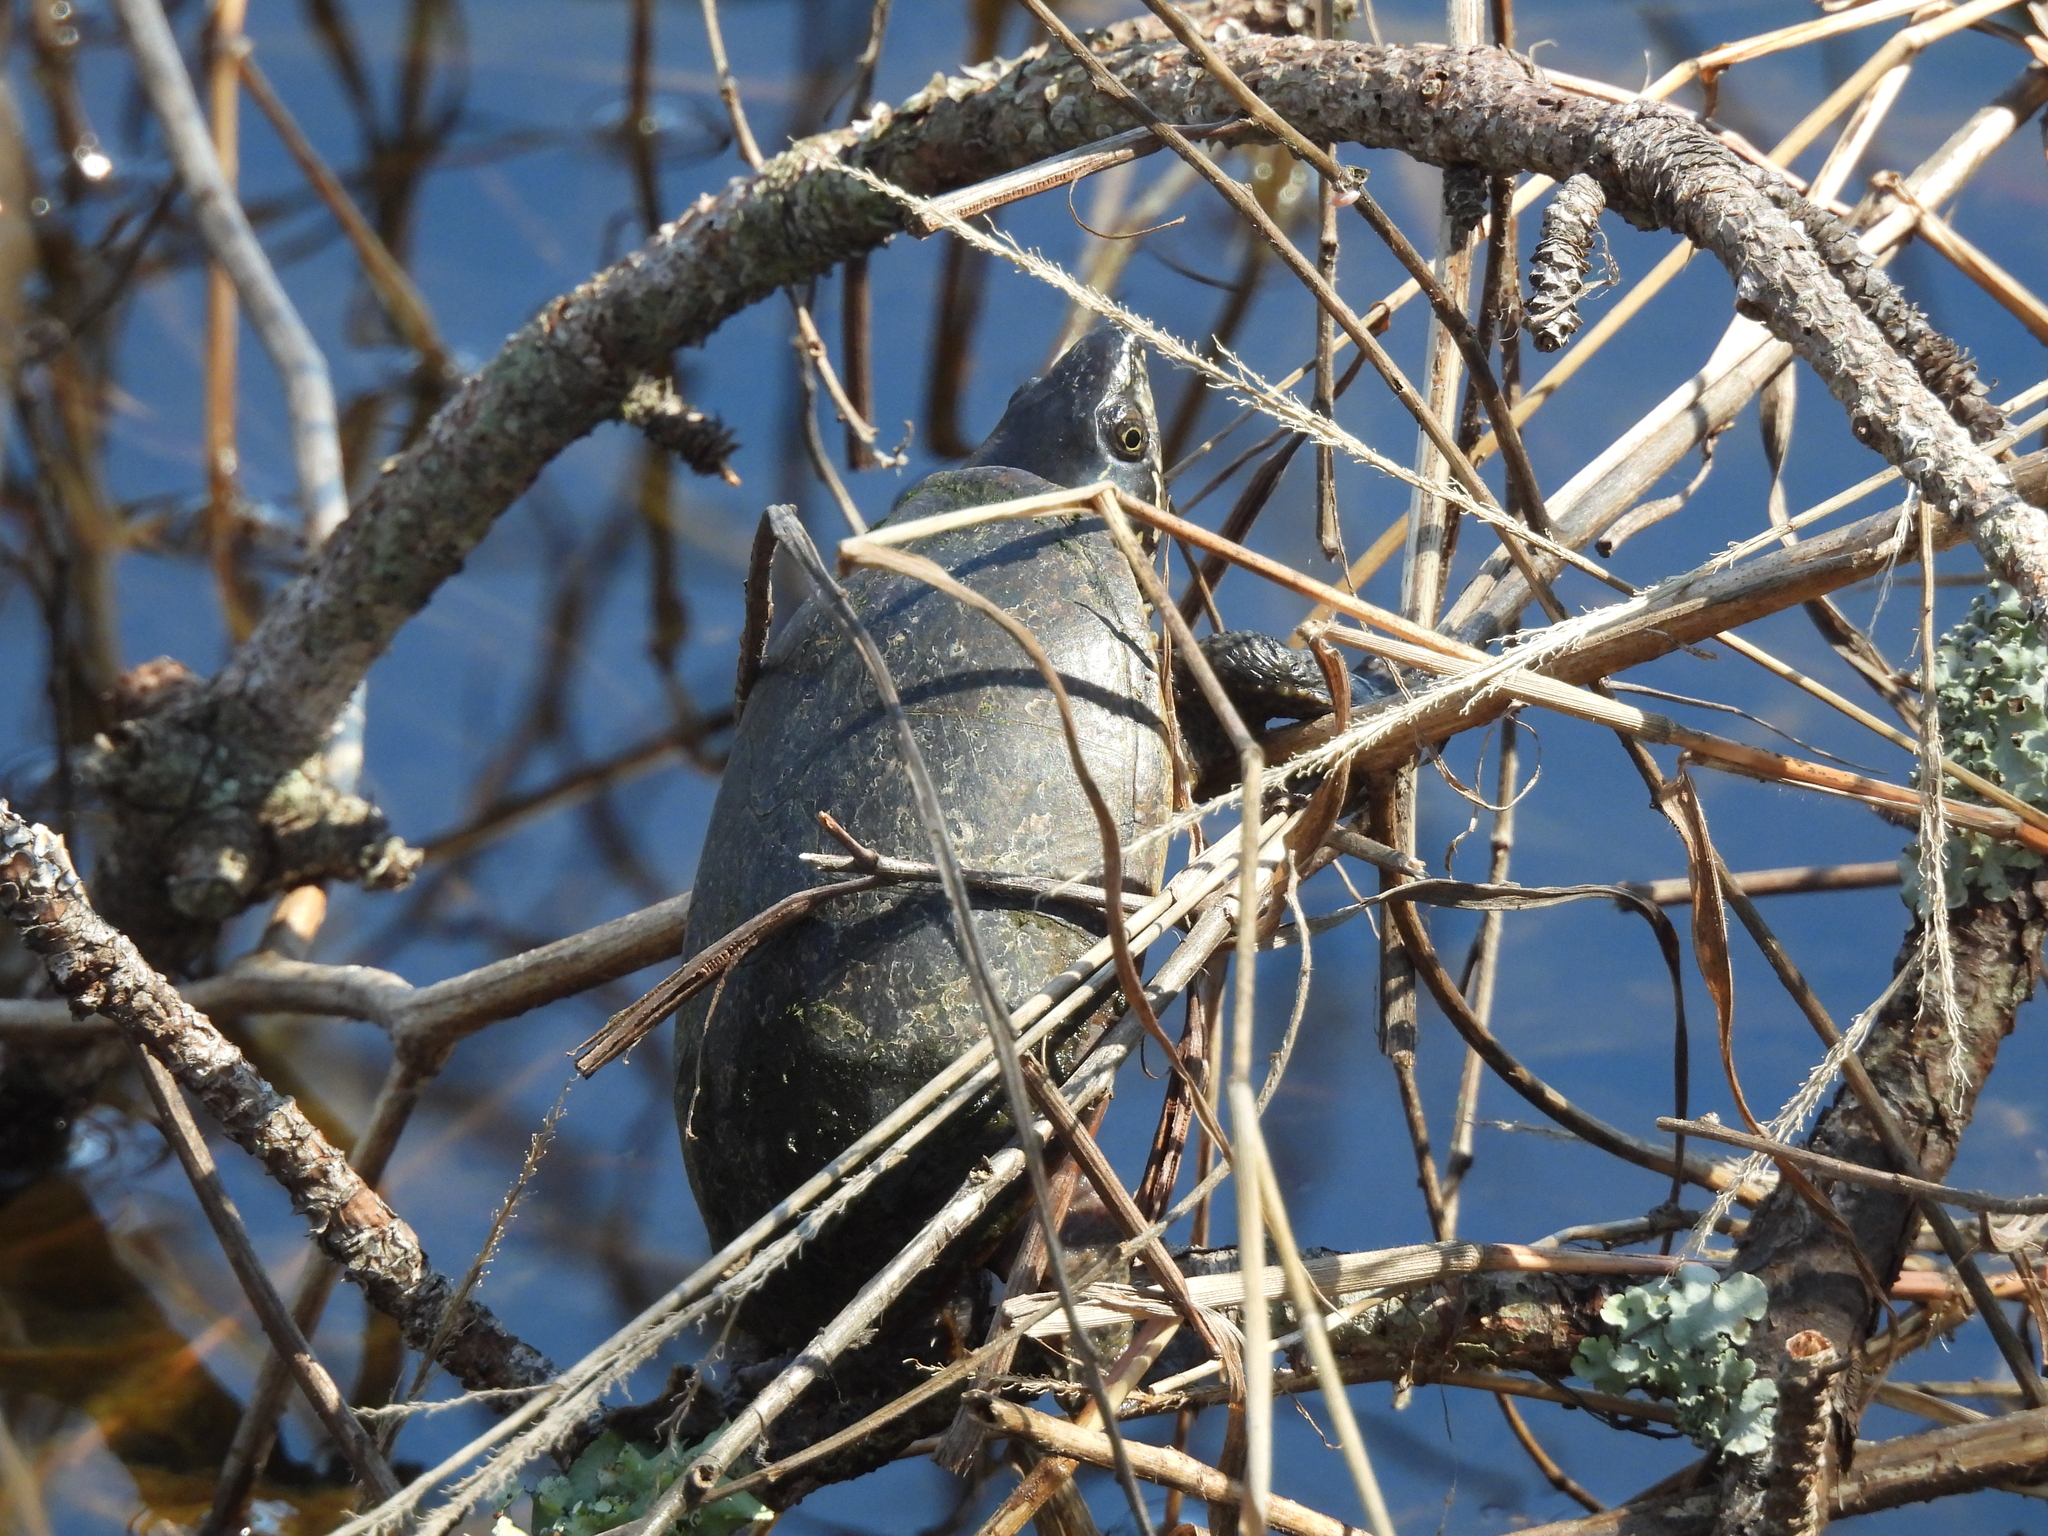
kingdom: Animalia
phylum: Chordata
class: Testudines
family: Kinosternidae
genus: Sternotherus
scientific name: Sternotherus odoratus
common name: Common musk turtle
